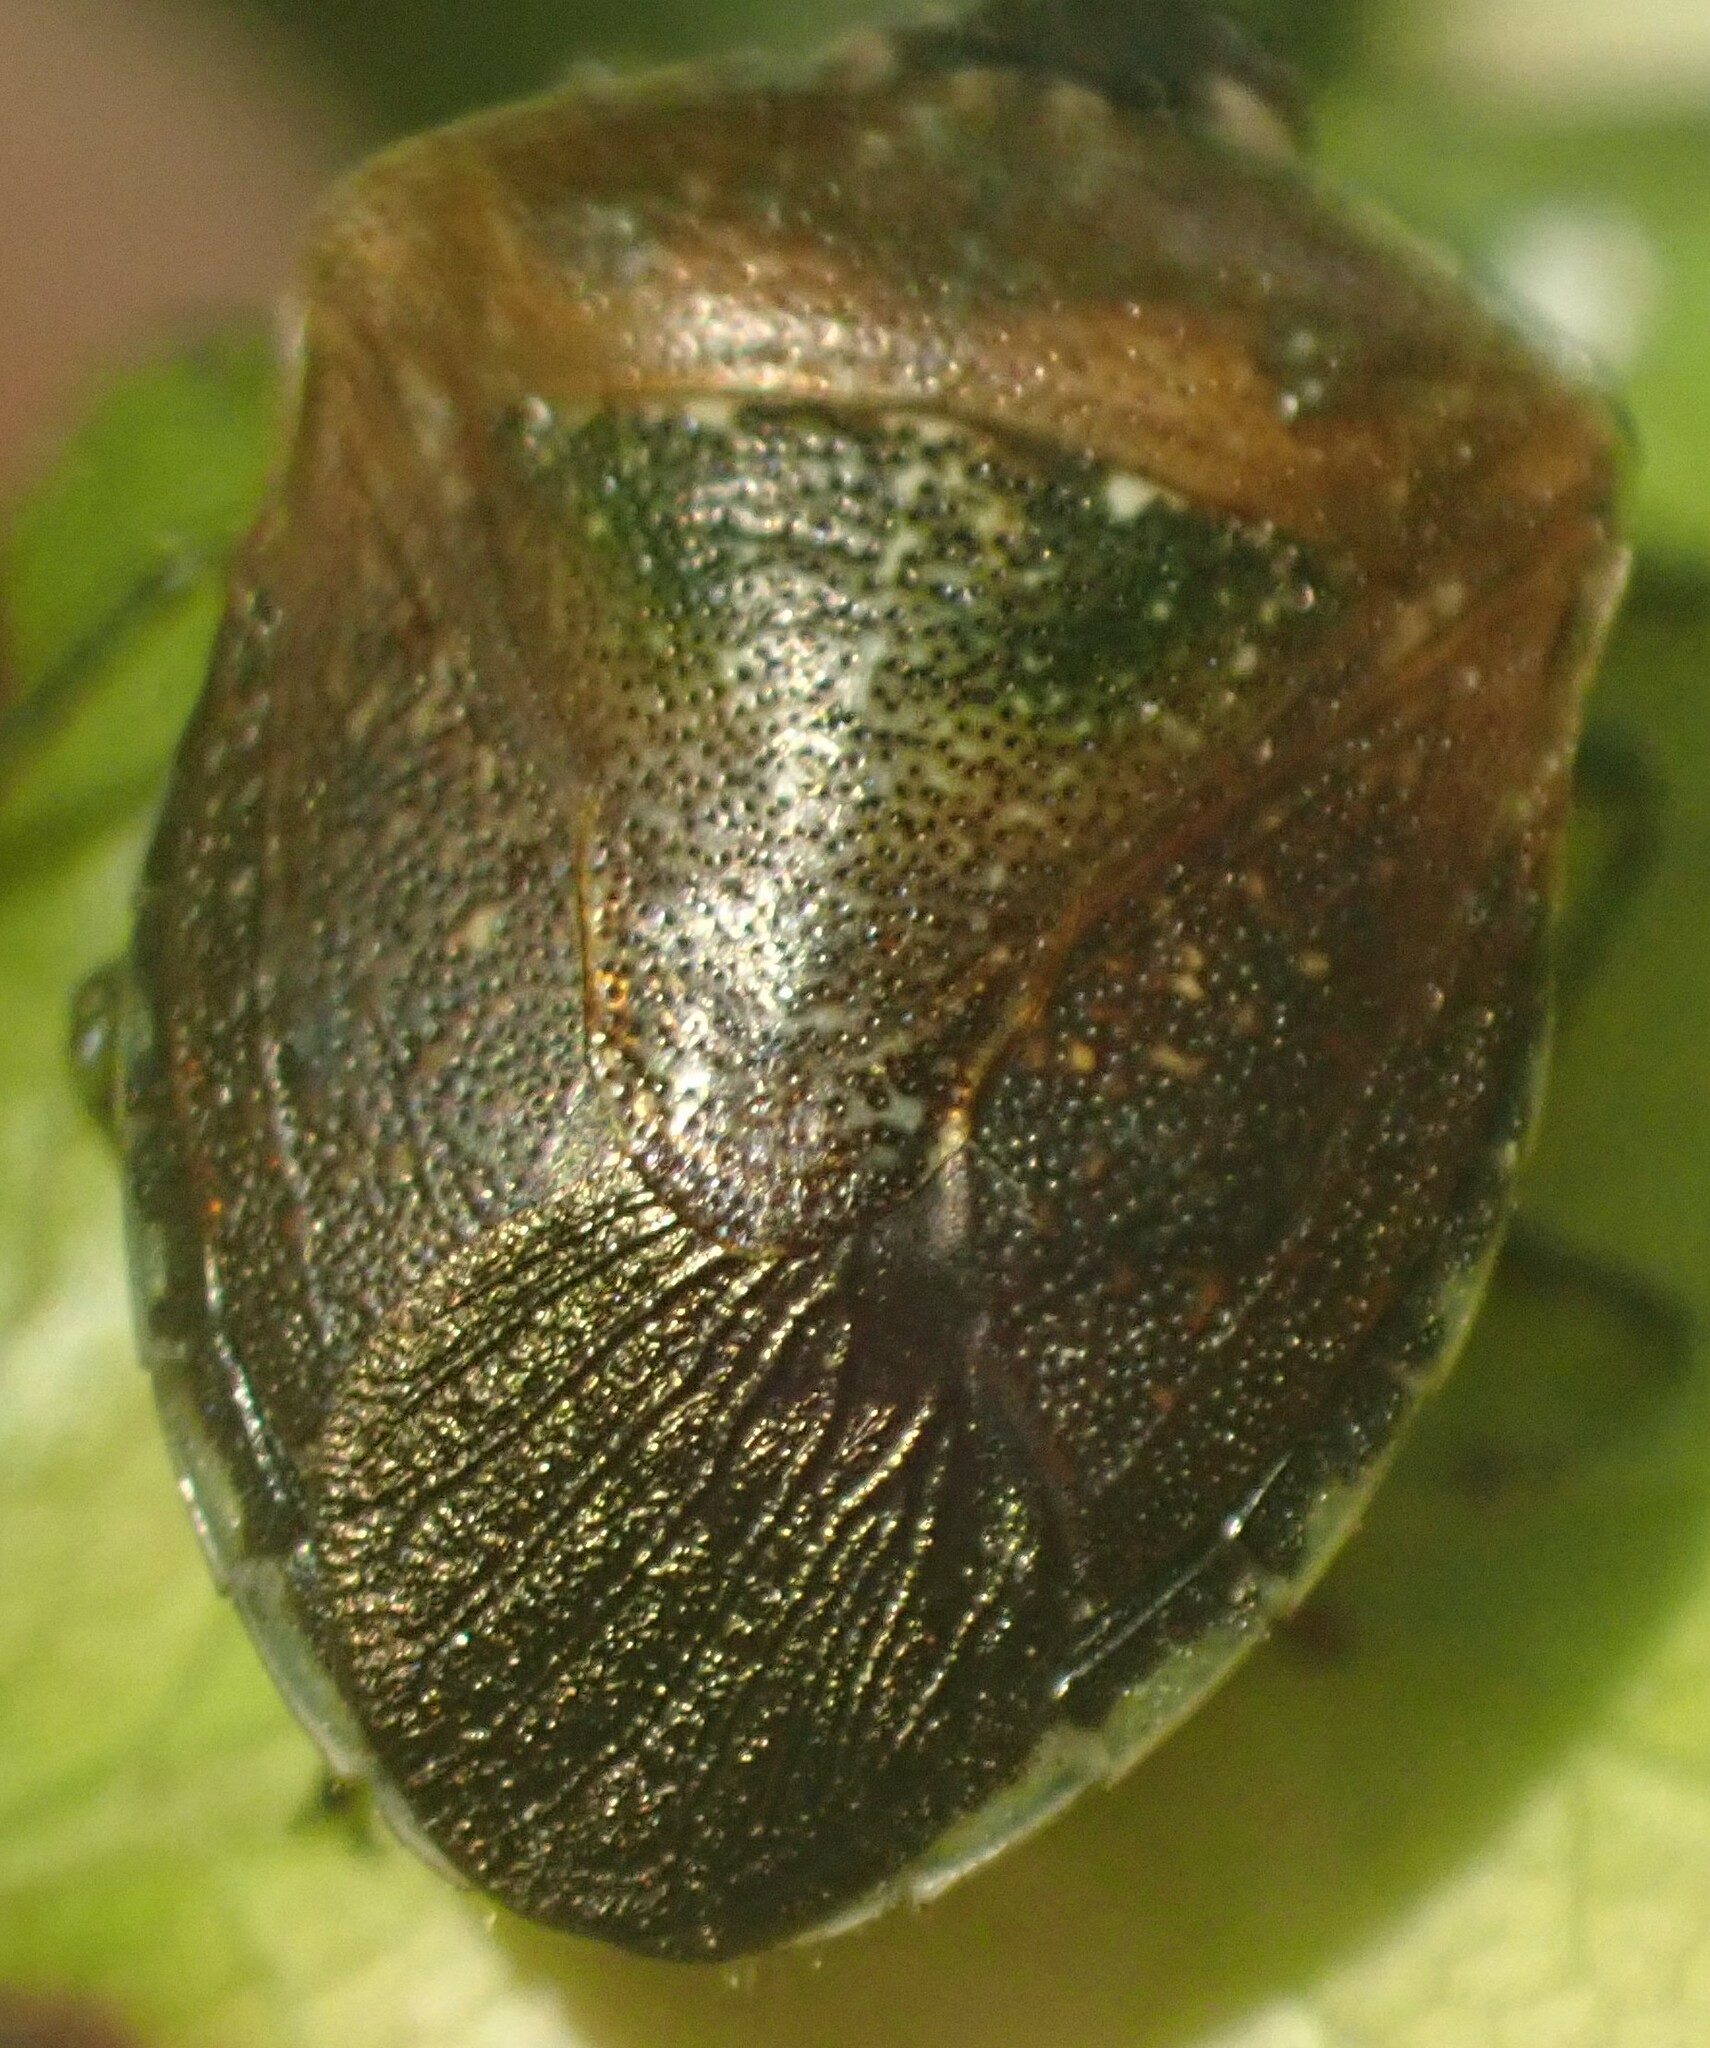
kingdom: Animalia
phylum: Arthropoda
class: Insecta
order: Hemiptera
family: Pentatomidae
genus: Monteithiella
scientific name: Monteithiella
